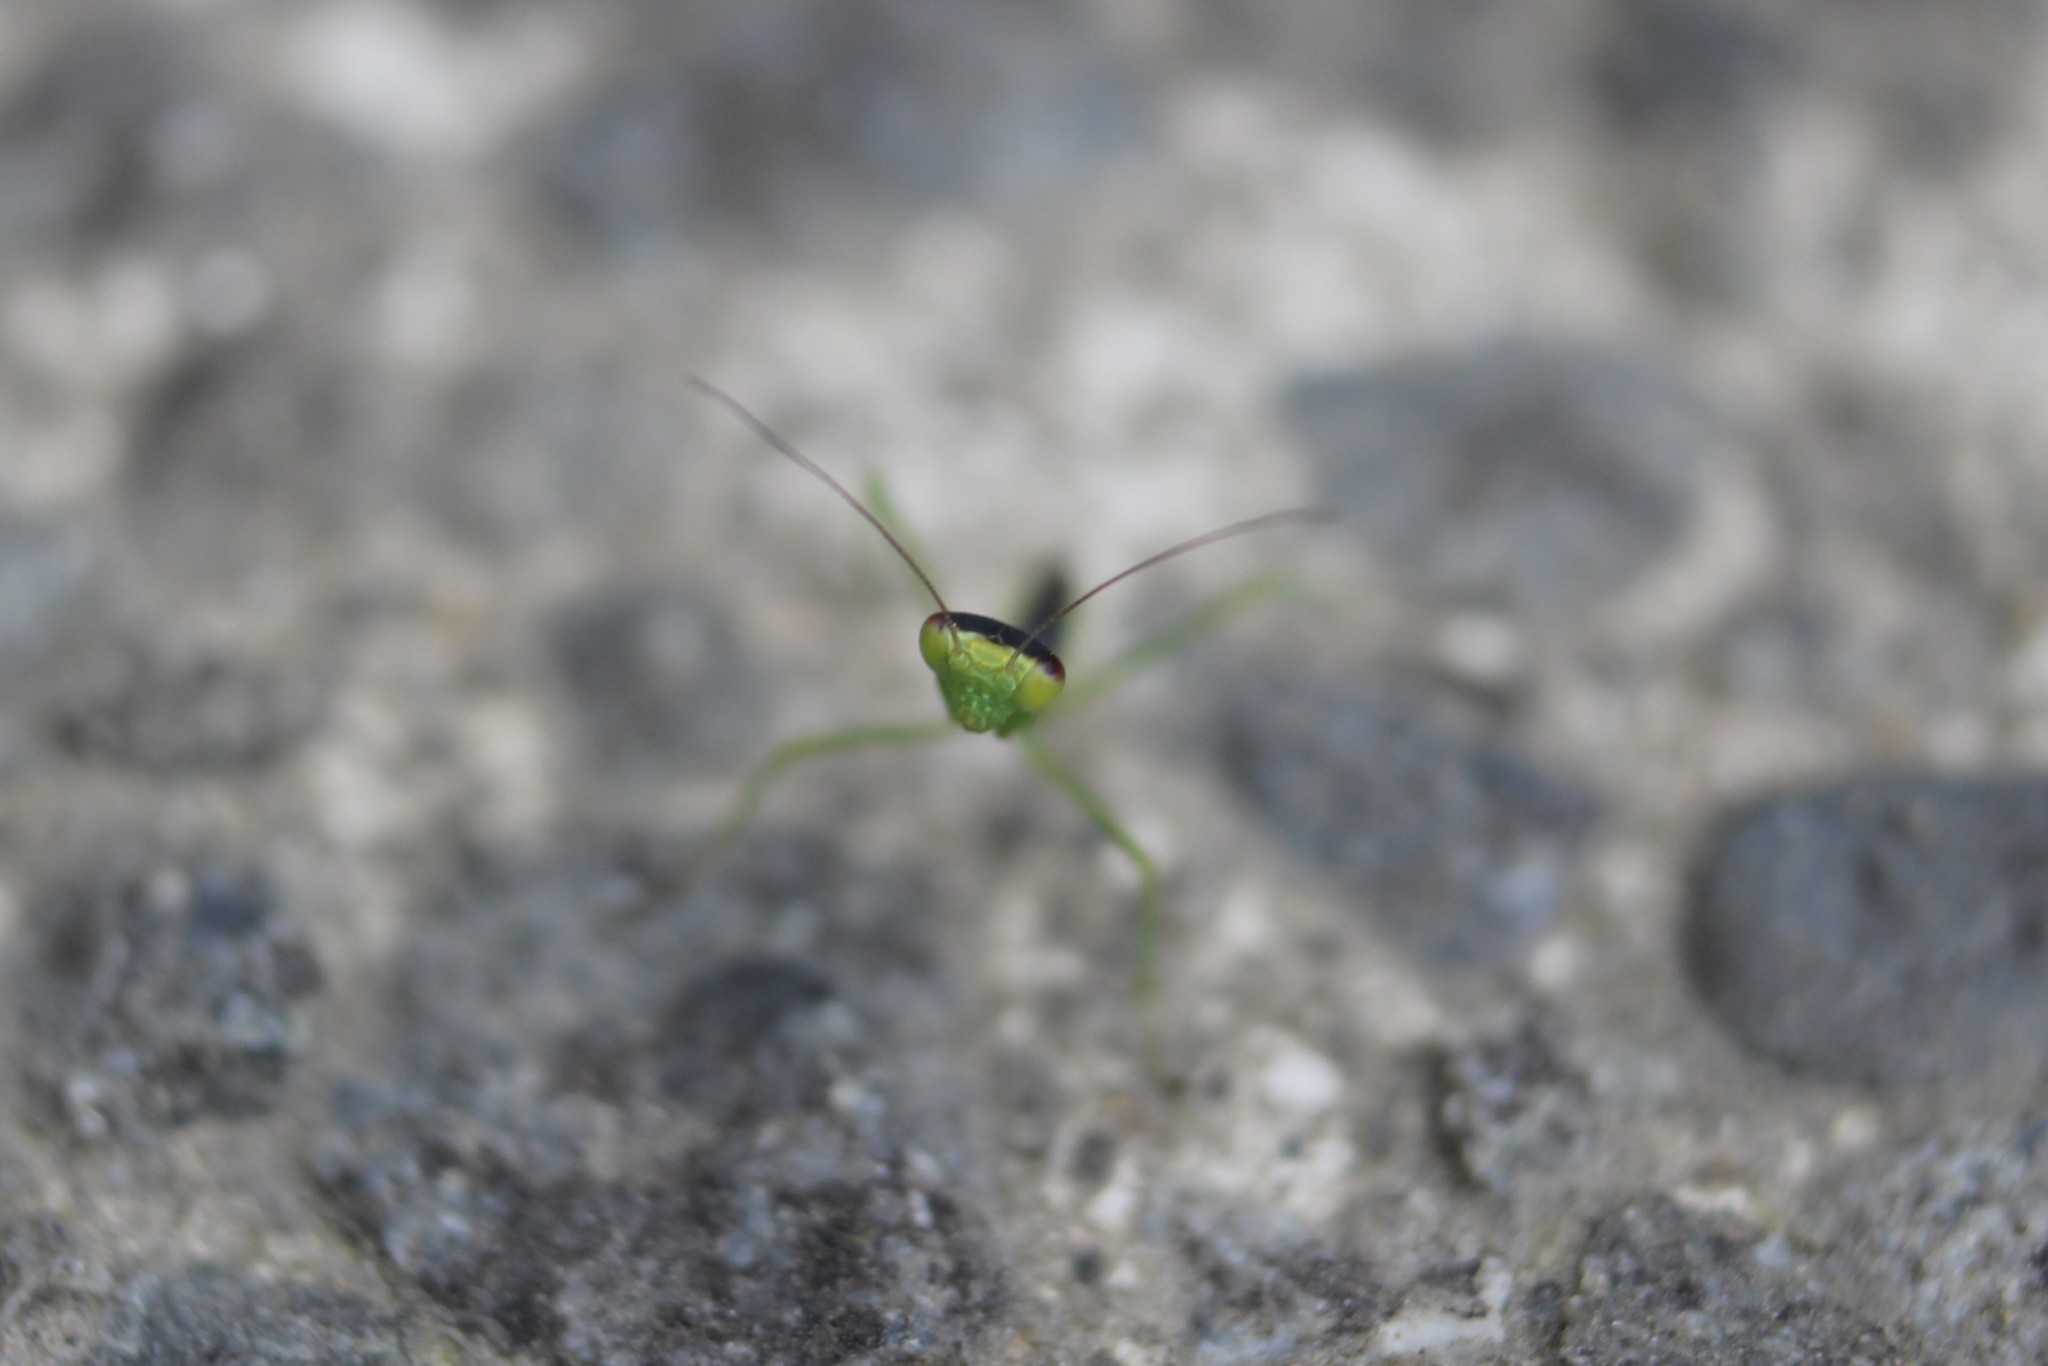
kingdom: Animalia
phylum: Arthropoda
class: Insecta
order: Mantodea
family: Mantidae
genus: Orthodera
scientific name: Orthodera novaezealandiae
